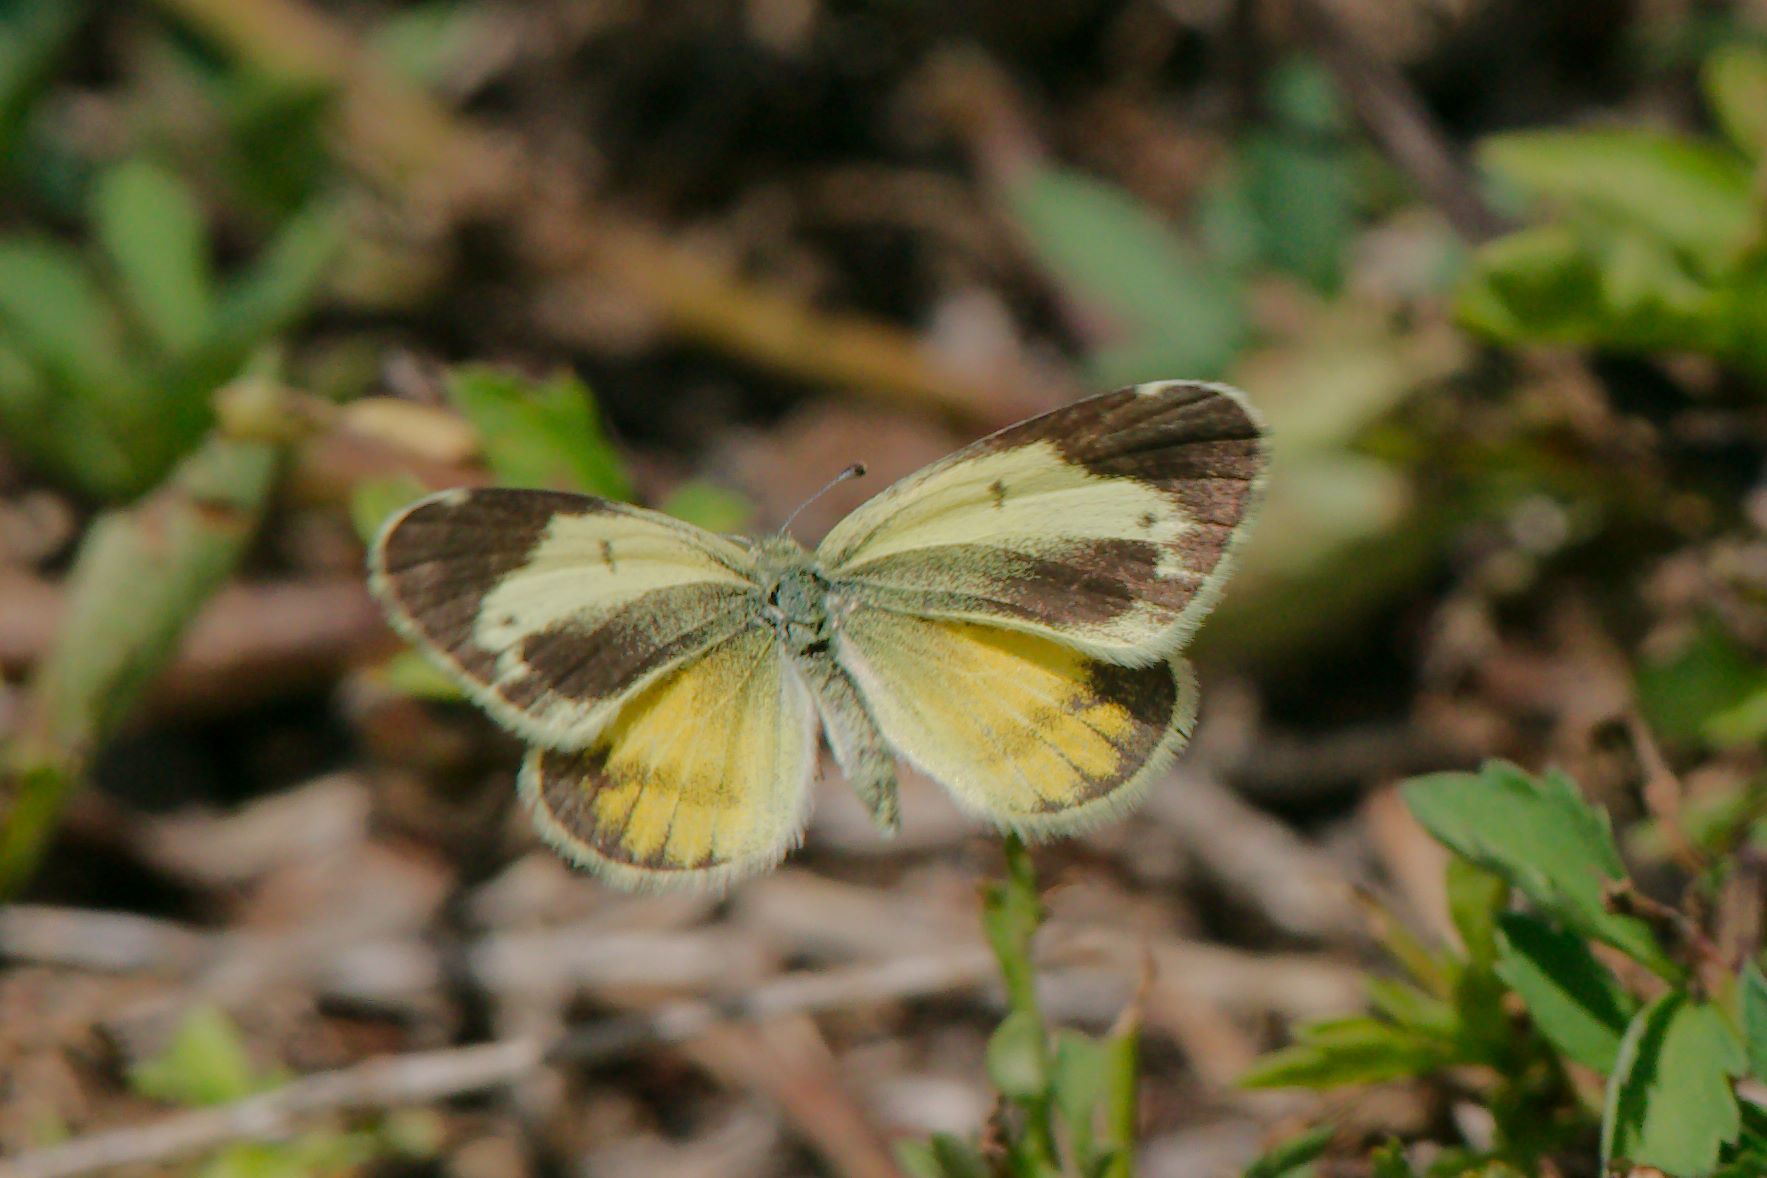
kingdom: Animalia
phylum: Arthropoda
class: Insecta
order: Lepidoptera
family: Pieridae
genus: Nathalis
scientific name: Nathalis iole
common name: Dainty sulphur
